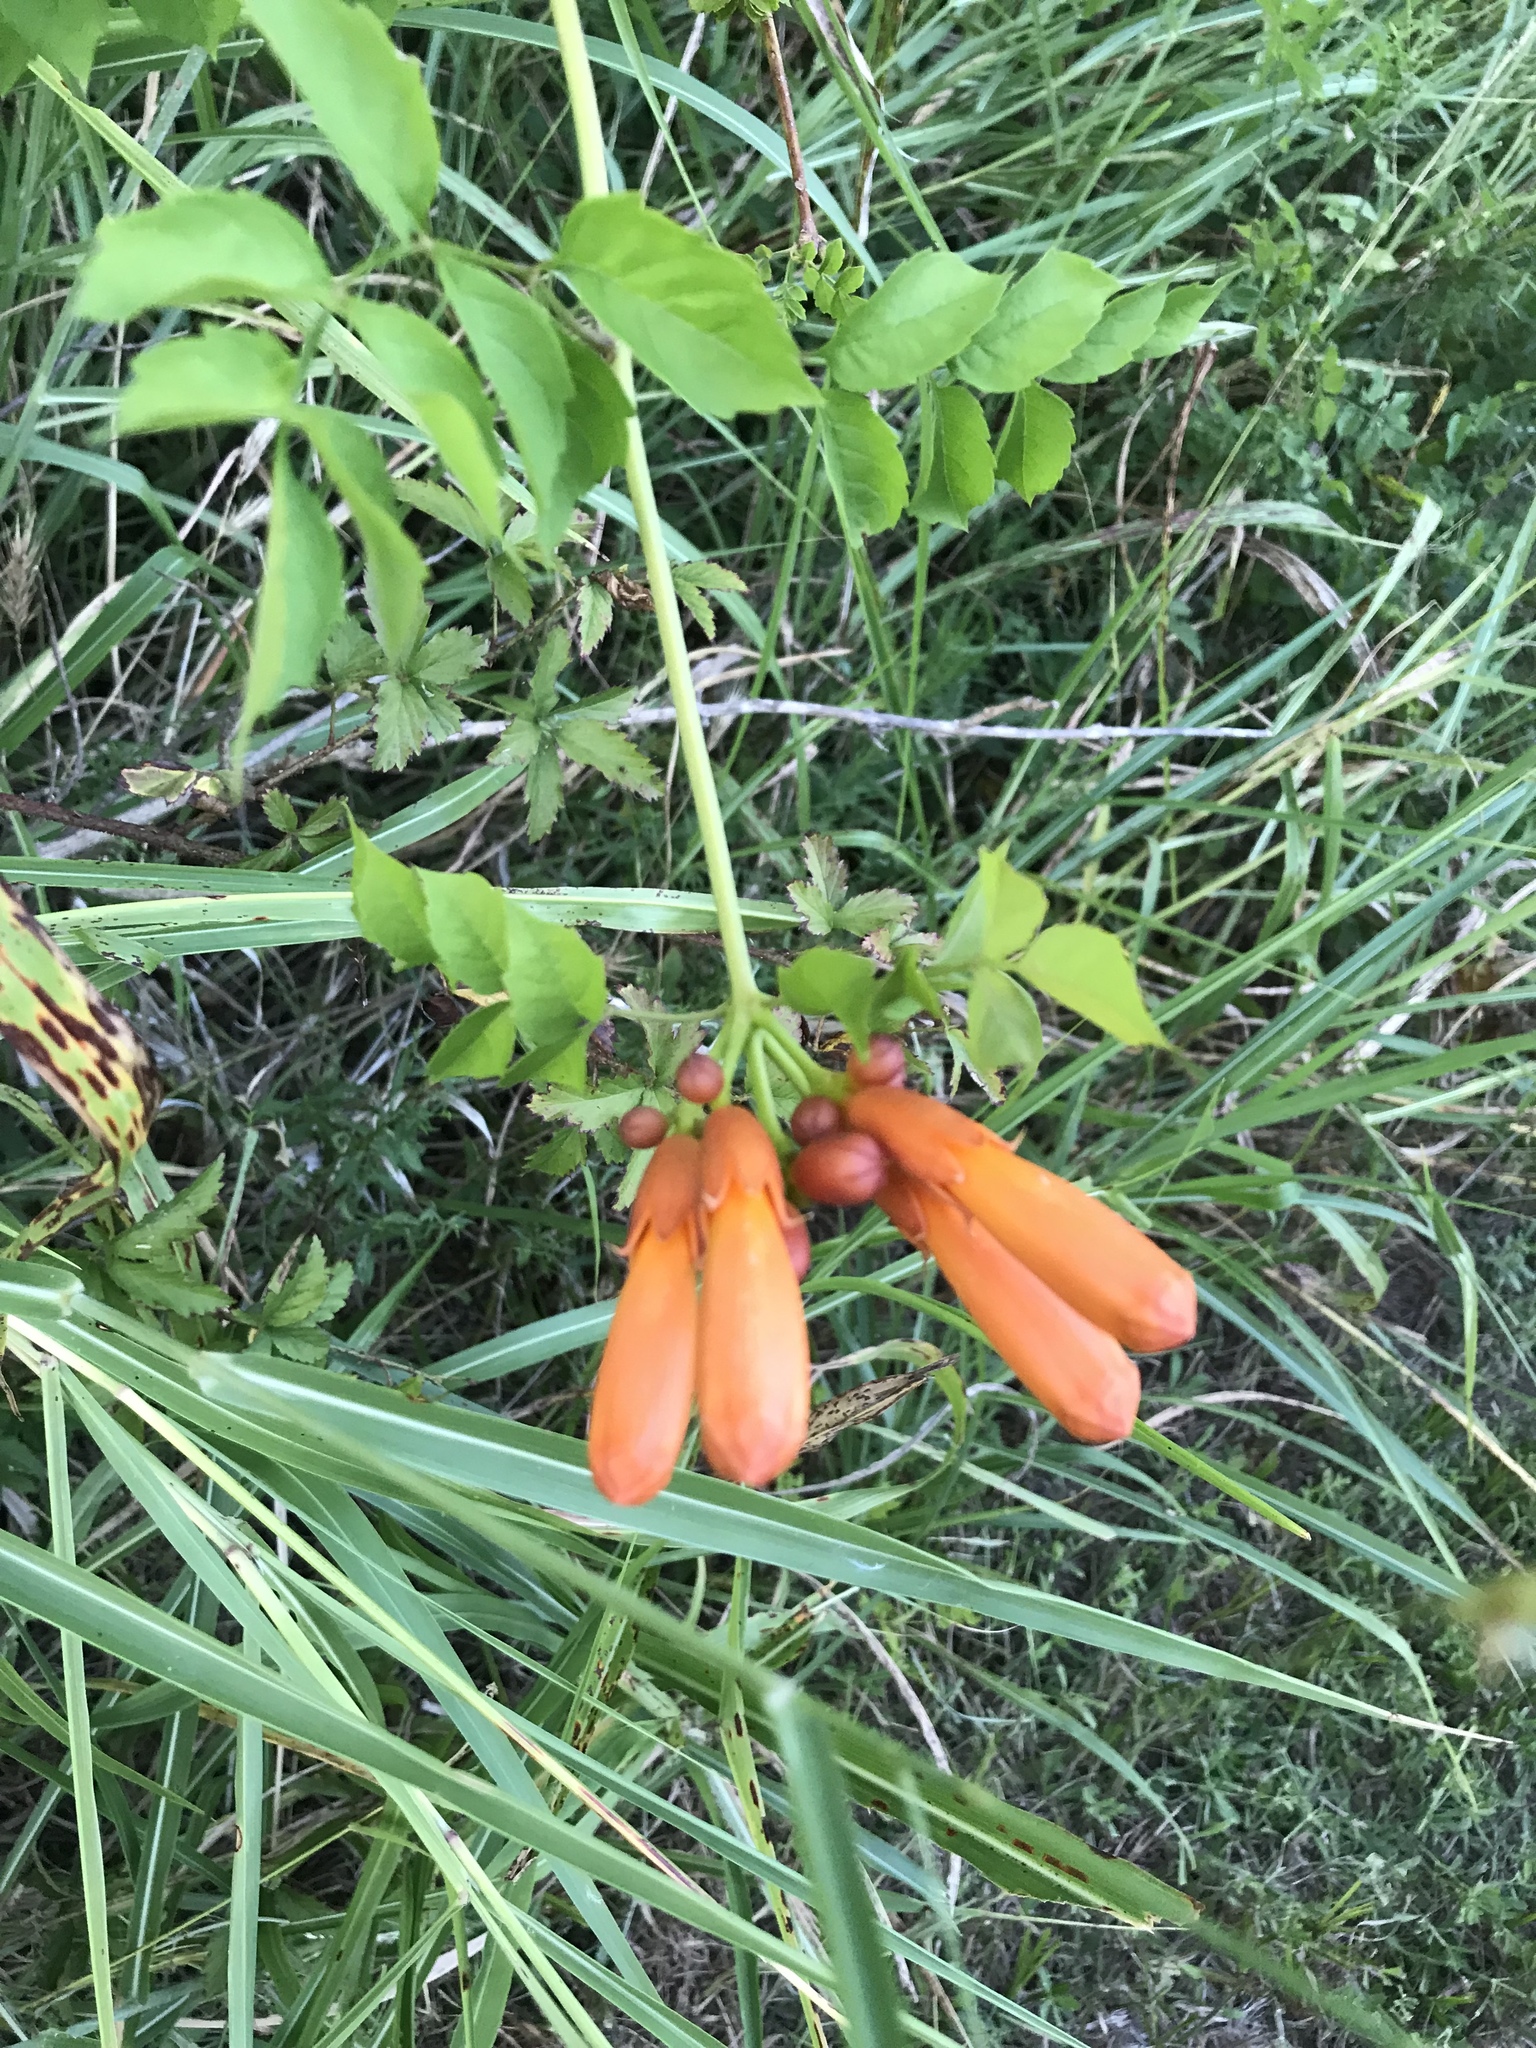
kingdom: Plantae
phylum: Tracheophyta
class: Magnoliopsida
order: Lamiales
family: Bignoniaceae
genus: Campsis
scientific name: Campsis radicans
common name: Trumpet-creeper
